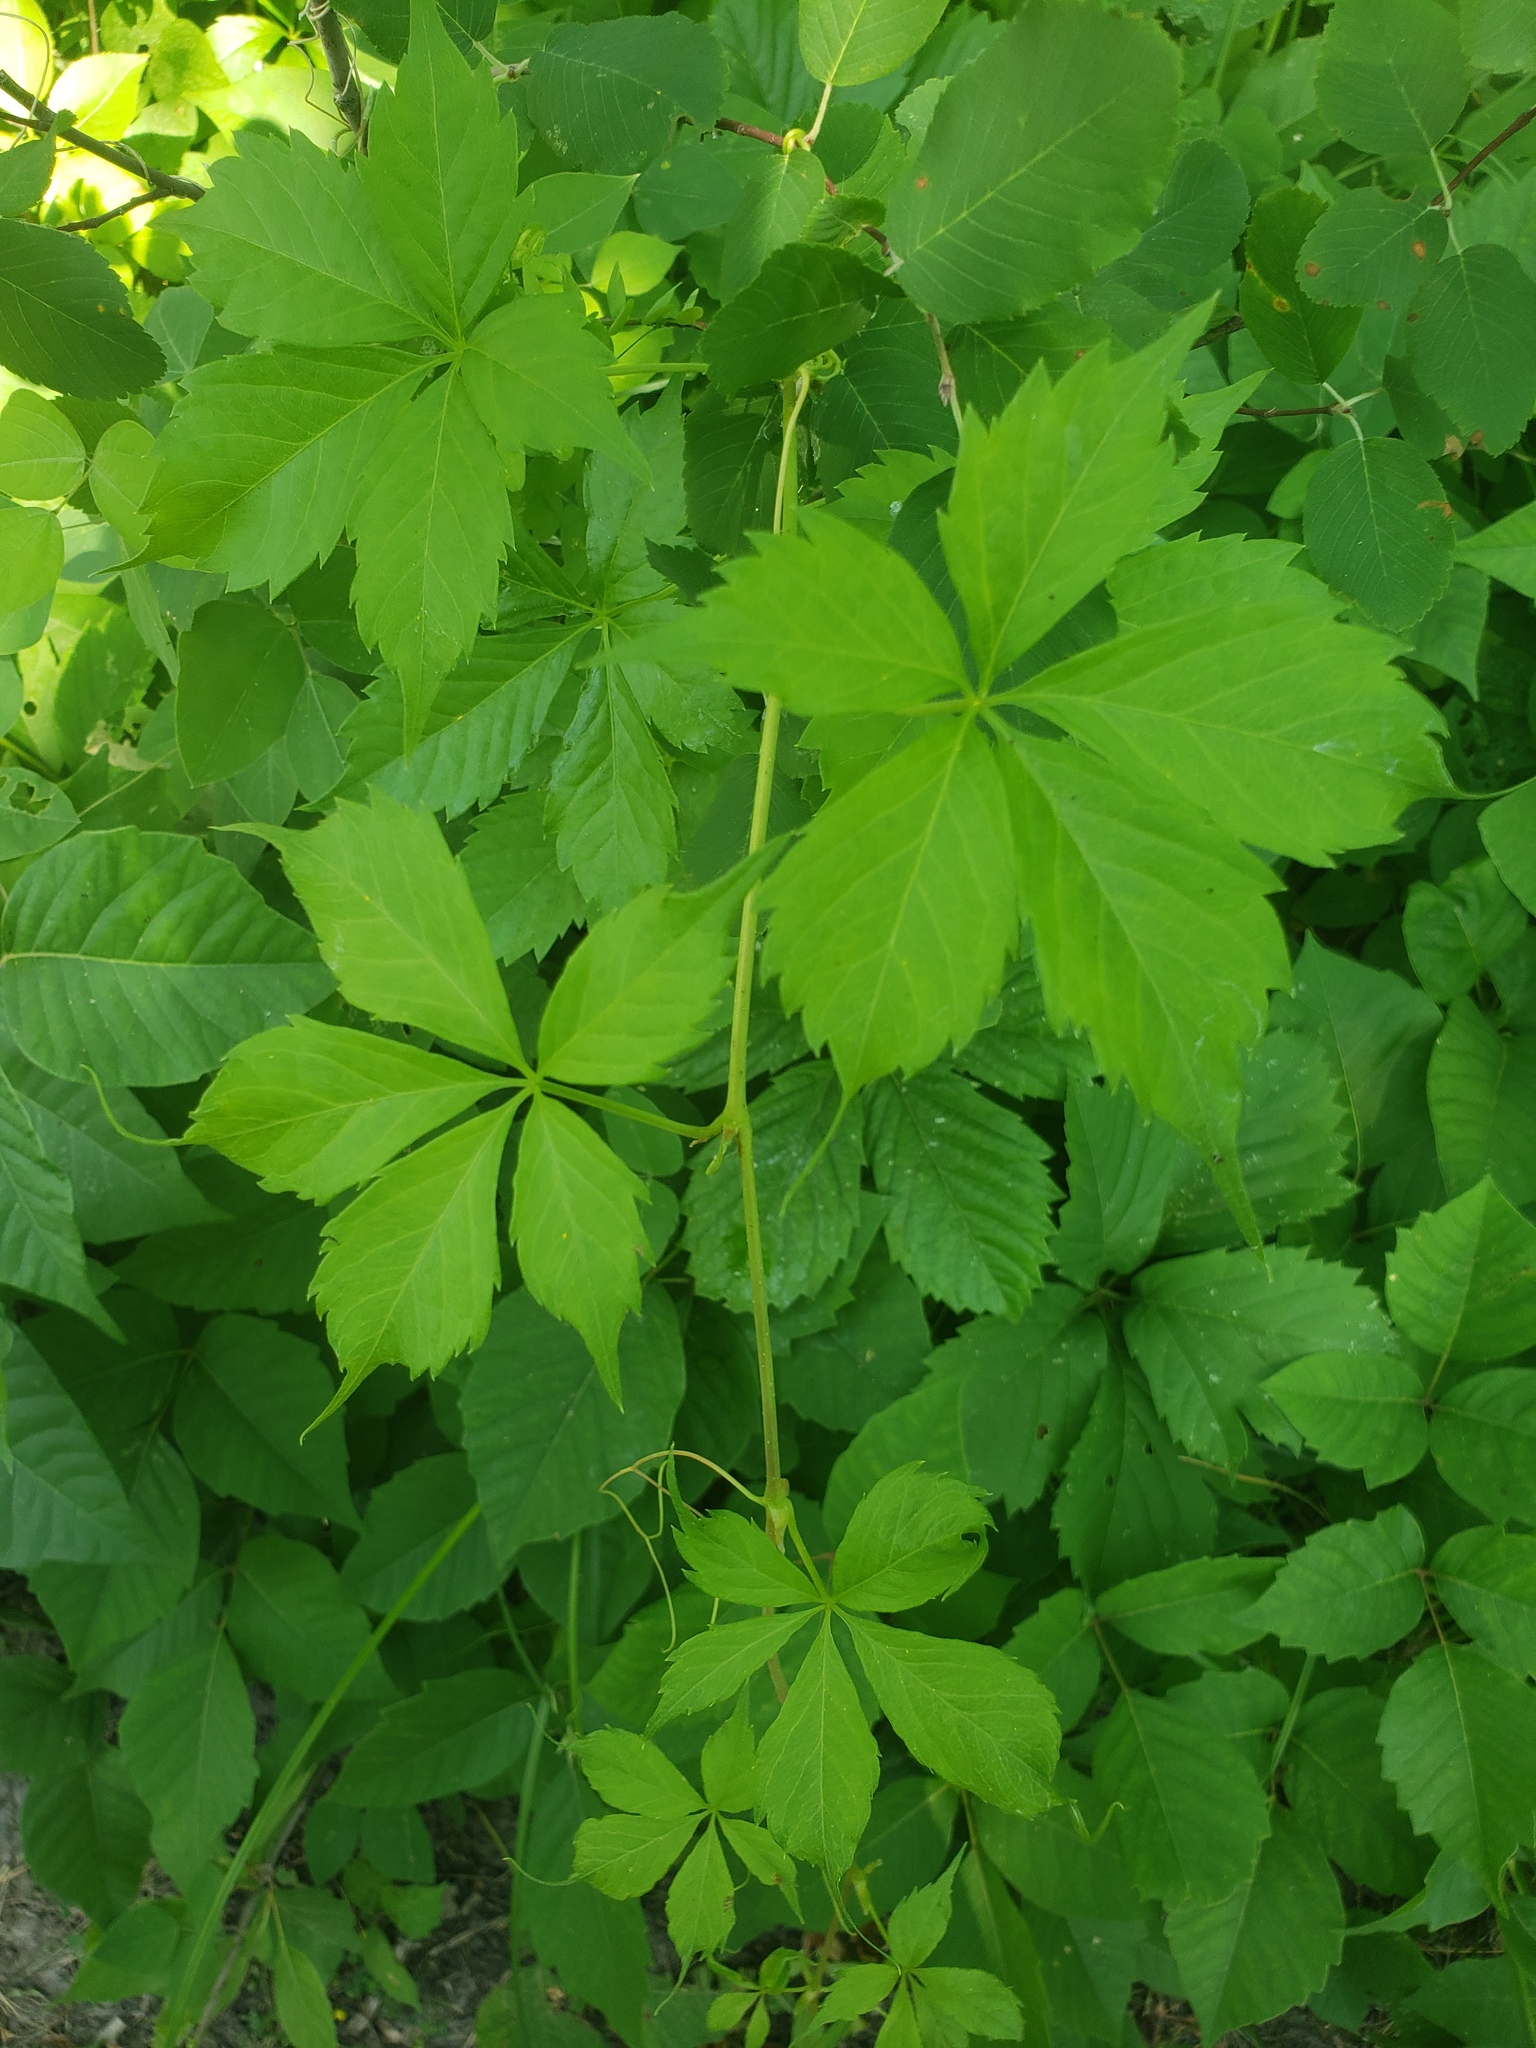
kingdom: Plantae
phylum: Tracheophyta
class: Magnoliopsida
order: Vitales
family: Vitaceae
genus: Parthenocissus
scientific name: Parthenocissus quinquefolia
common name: Virginia-creeper
